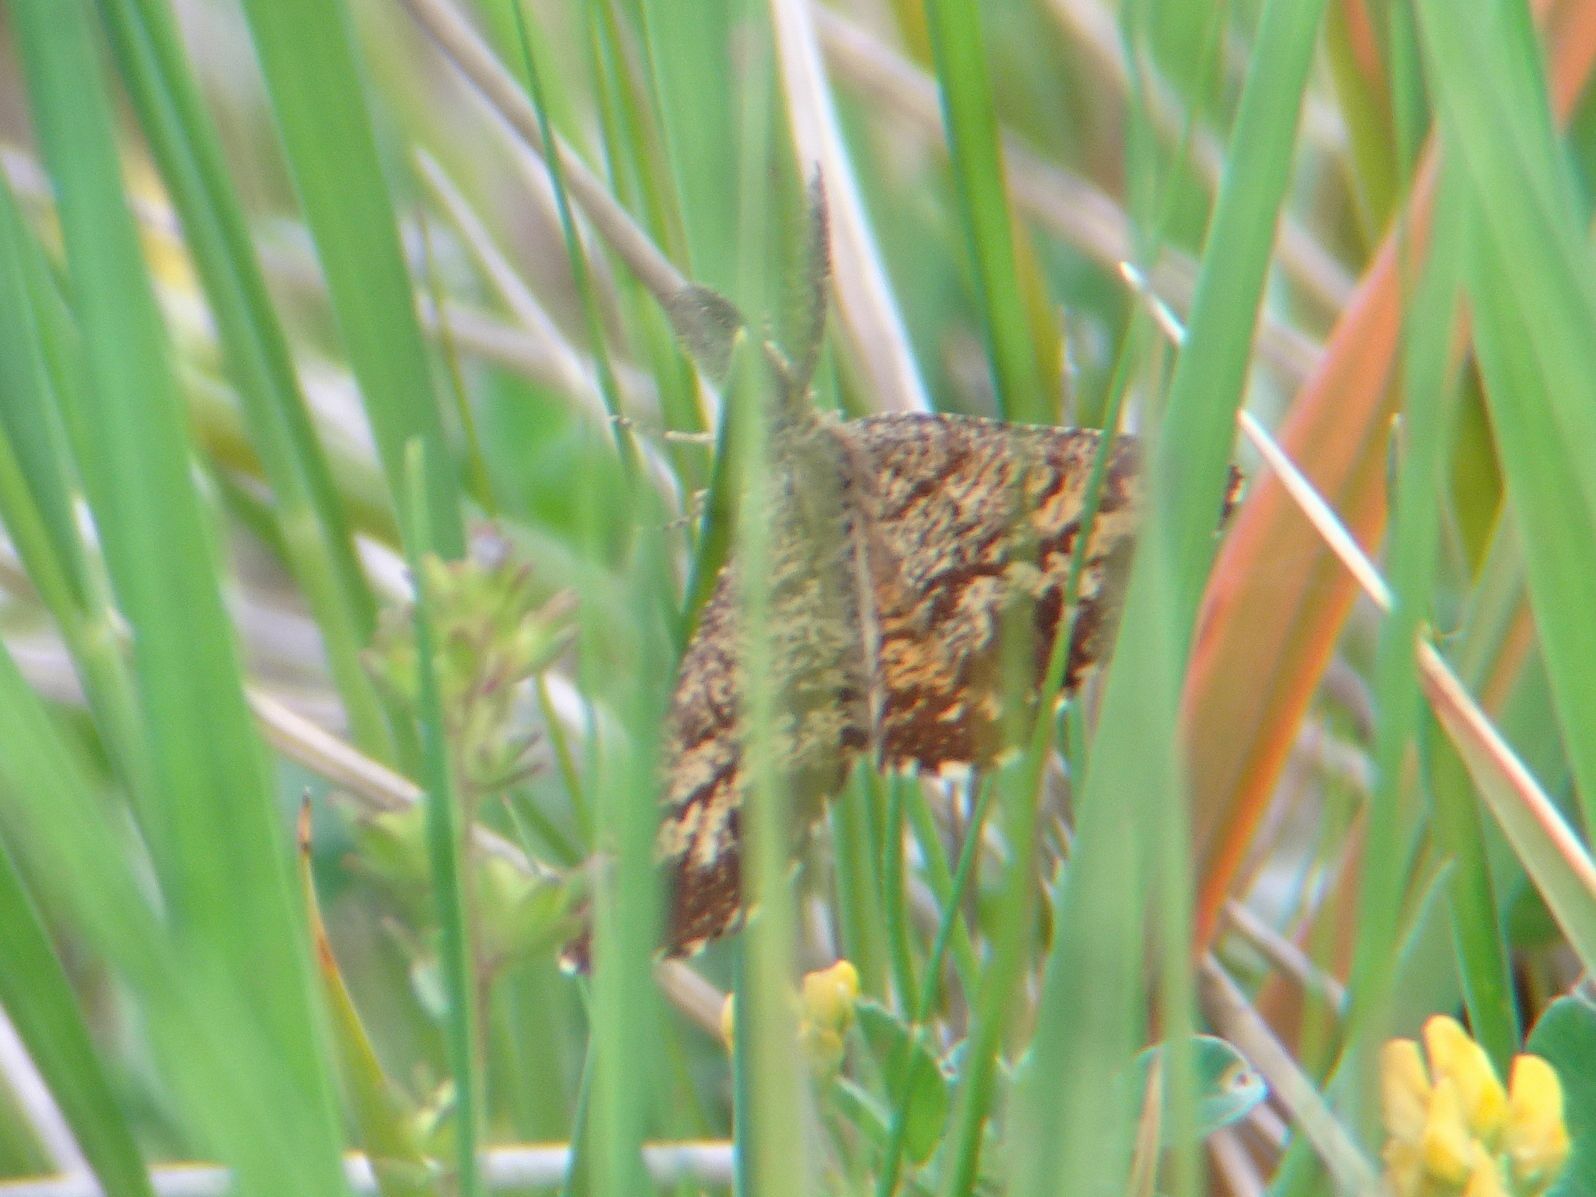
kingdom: Animalia
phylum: Arthropoda
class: Insecta
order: Lepidoptera
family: Geometridae
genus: Ematurga
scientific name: Ematurga atomaria
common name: Common heath
